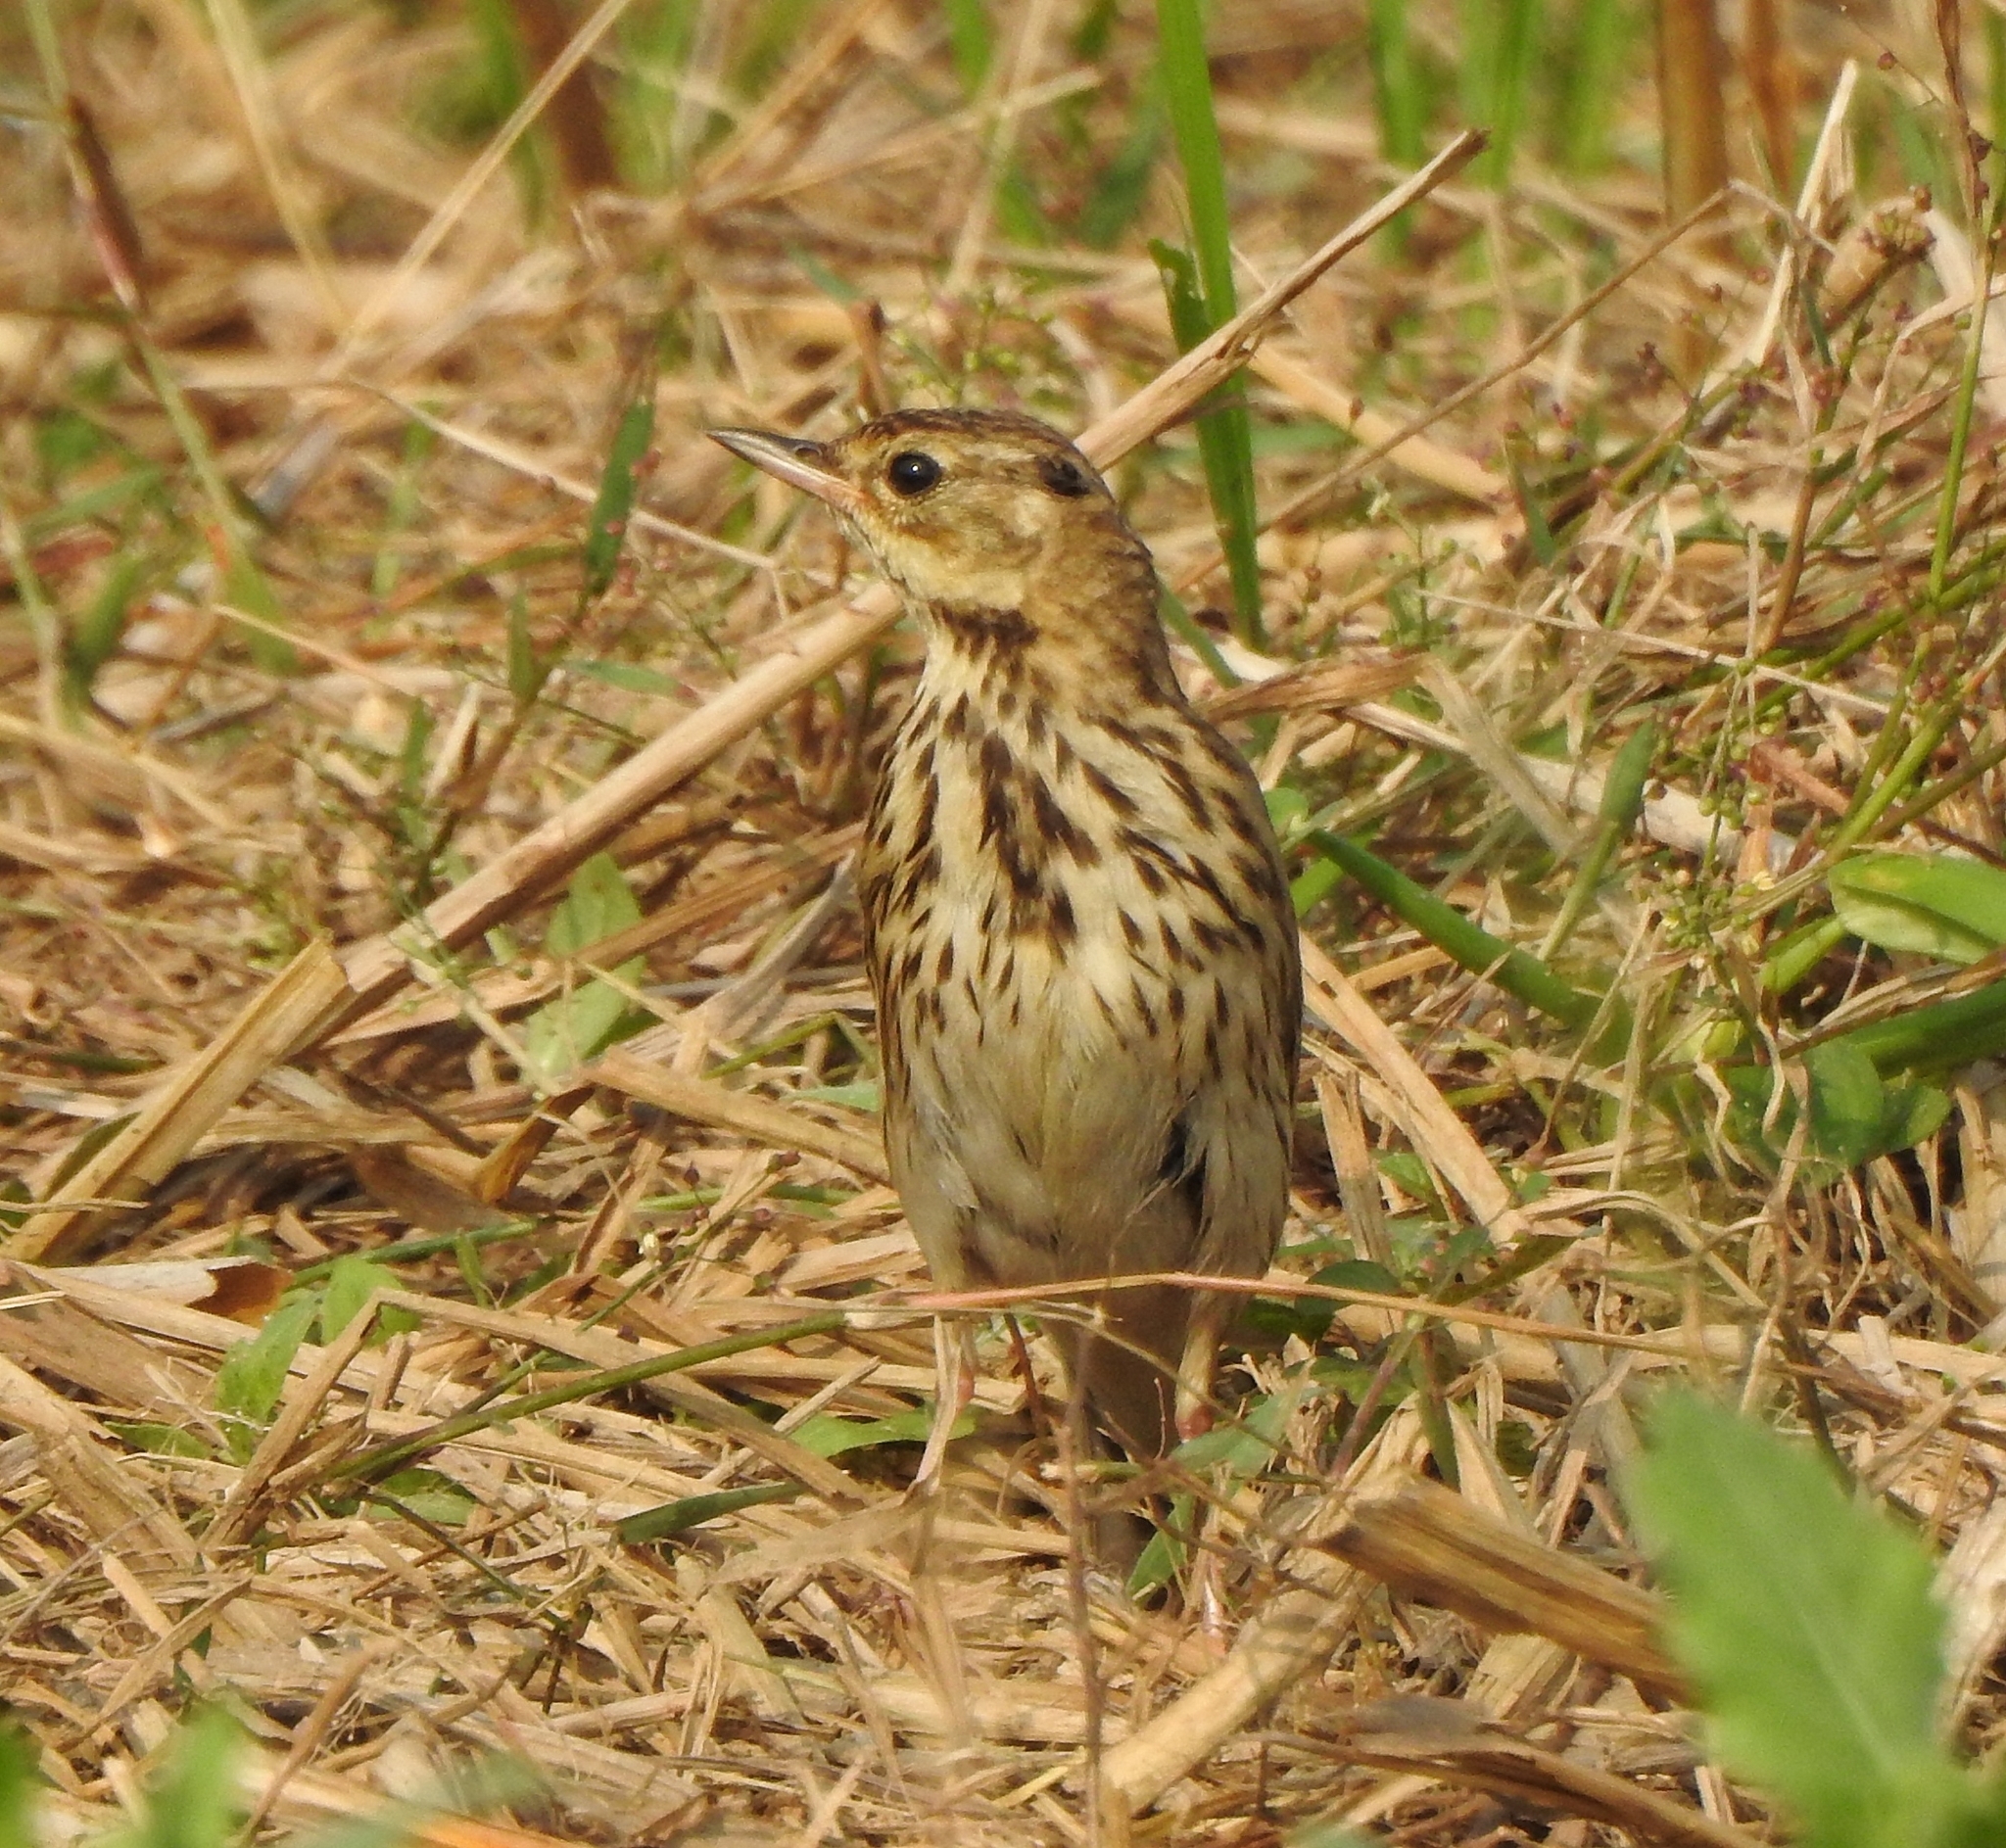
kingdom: Animalia
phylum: Chordata
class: Aves
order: Passeriformes
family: Motacillidae
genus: Anthus
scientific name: Anthus trivialis
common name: Tree pipit
